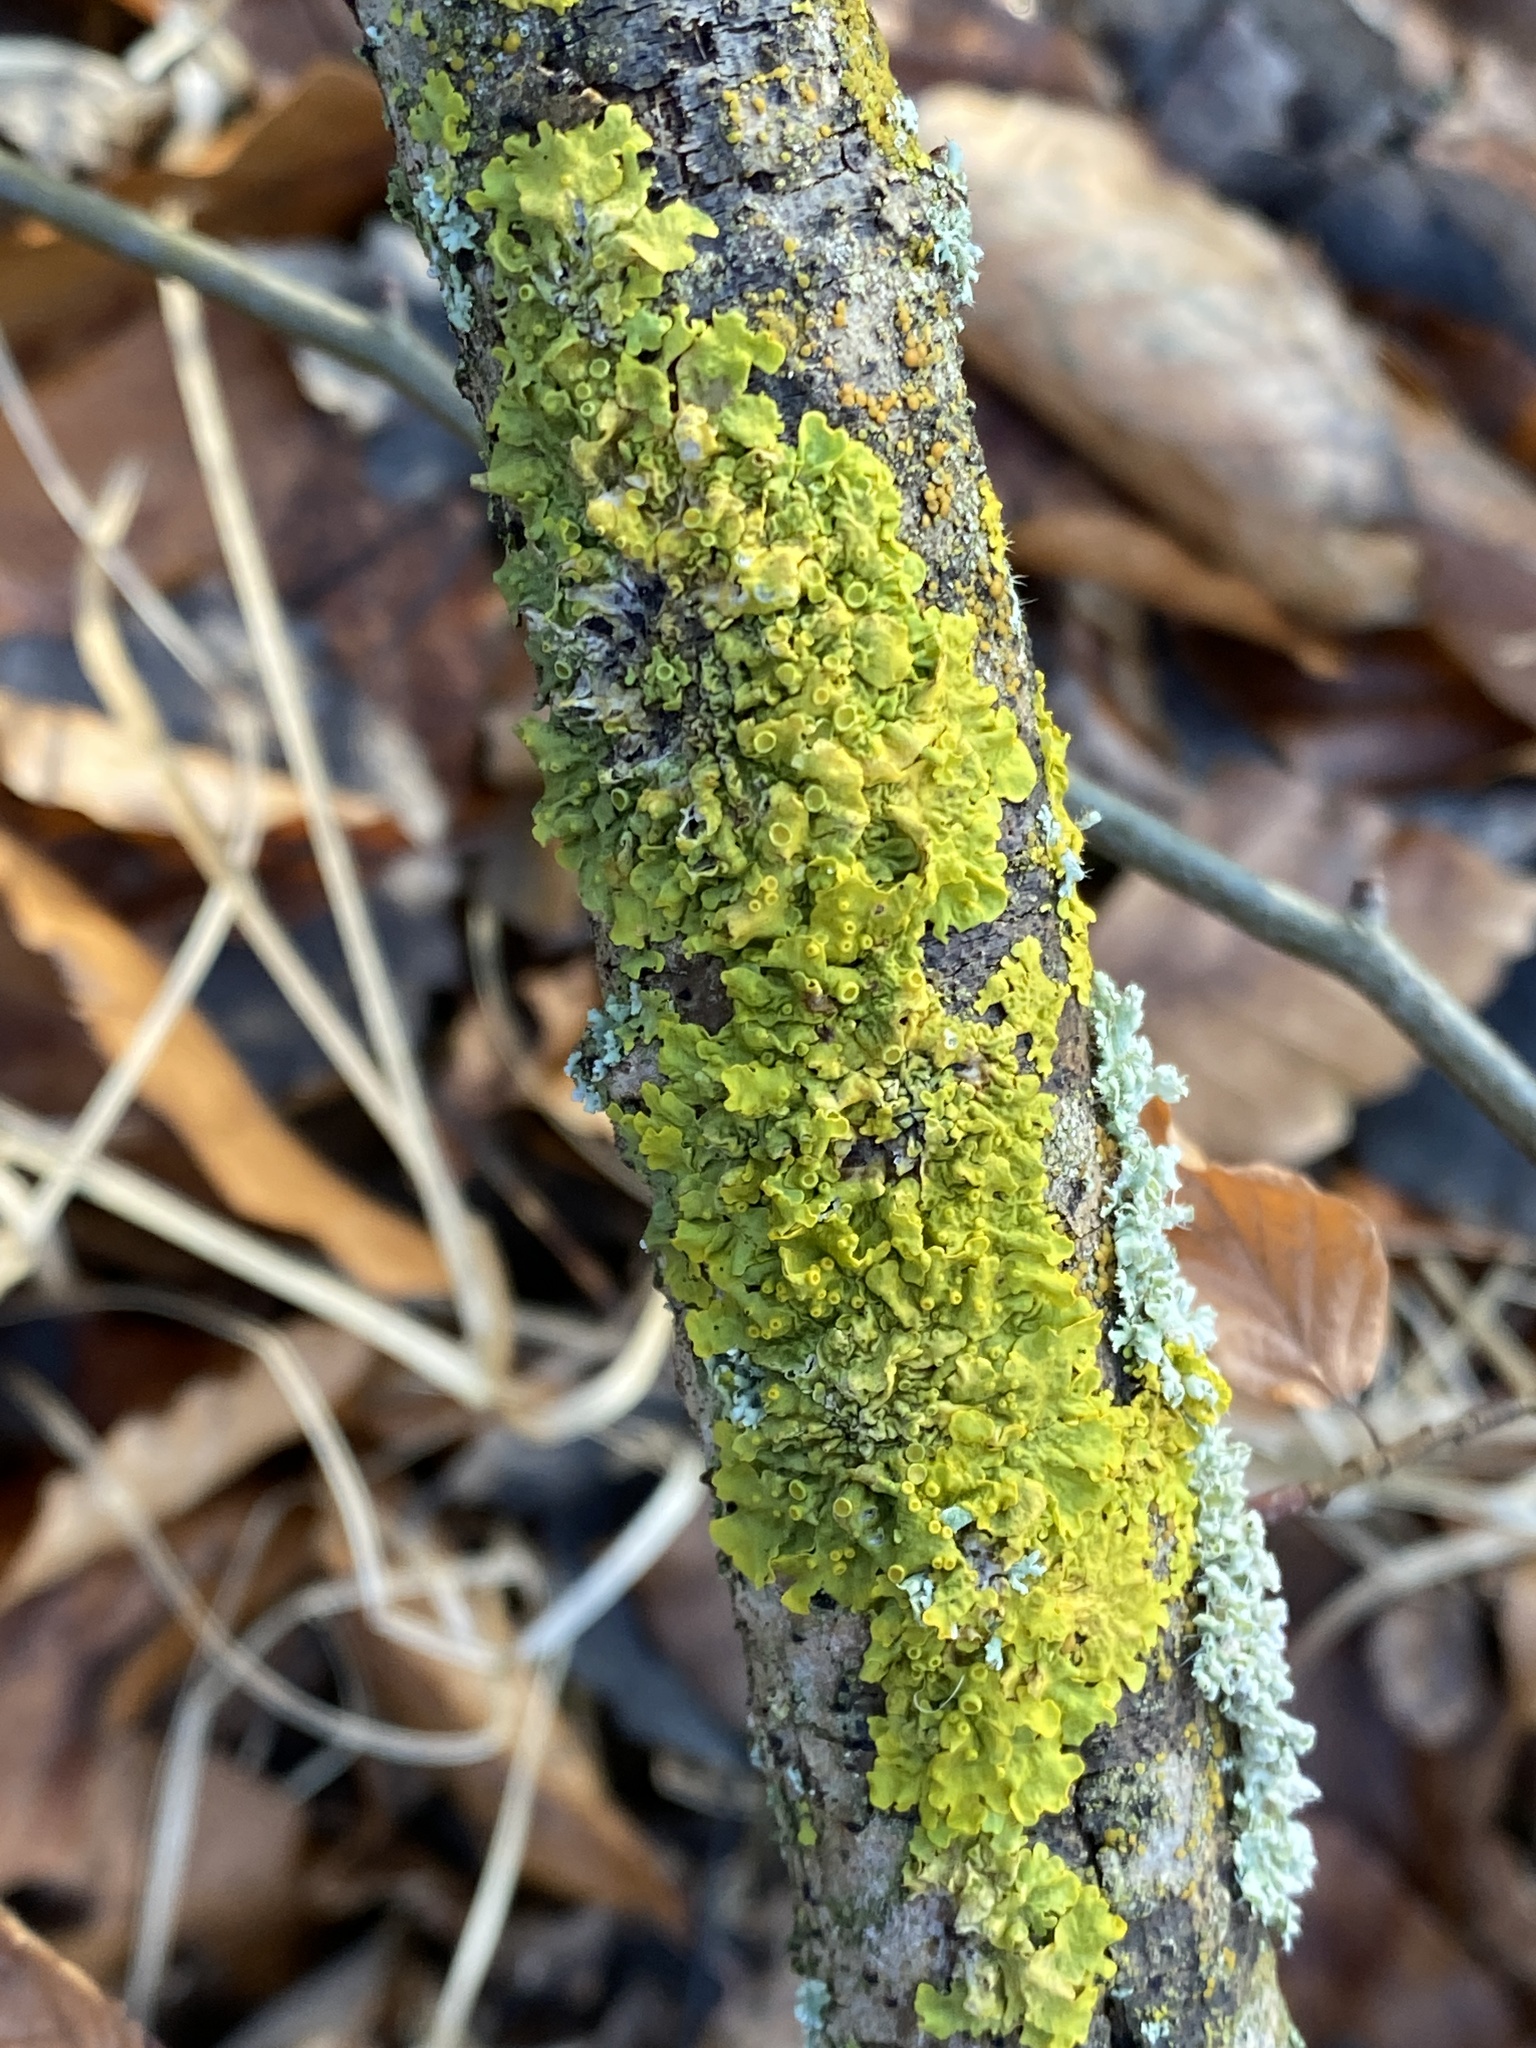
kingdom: Fungi
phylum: Ascomycota
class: Lecanoromycetes
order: Teloschistales
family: Teloschistaceae
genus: Xanthoria
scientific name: Xanthoria parietina
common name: Common orange lichen
